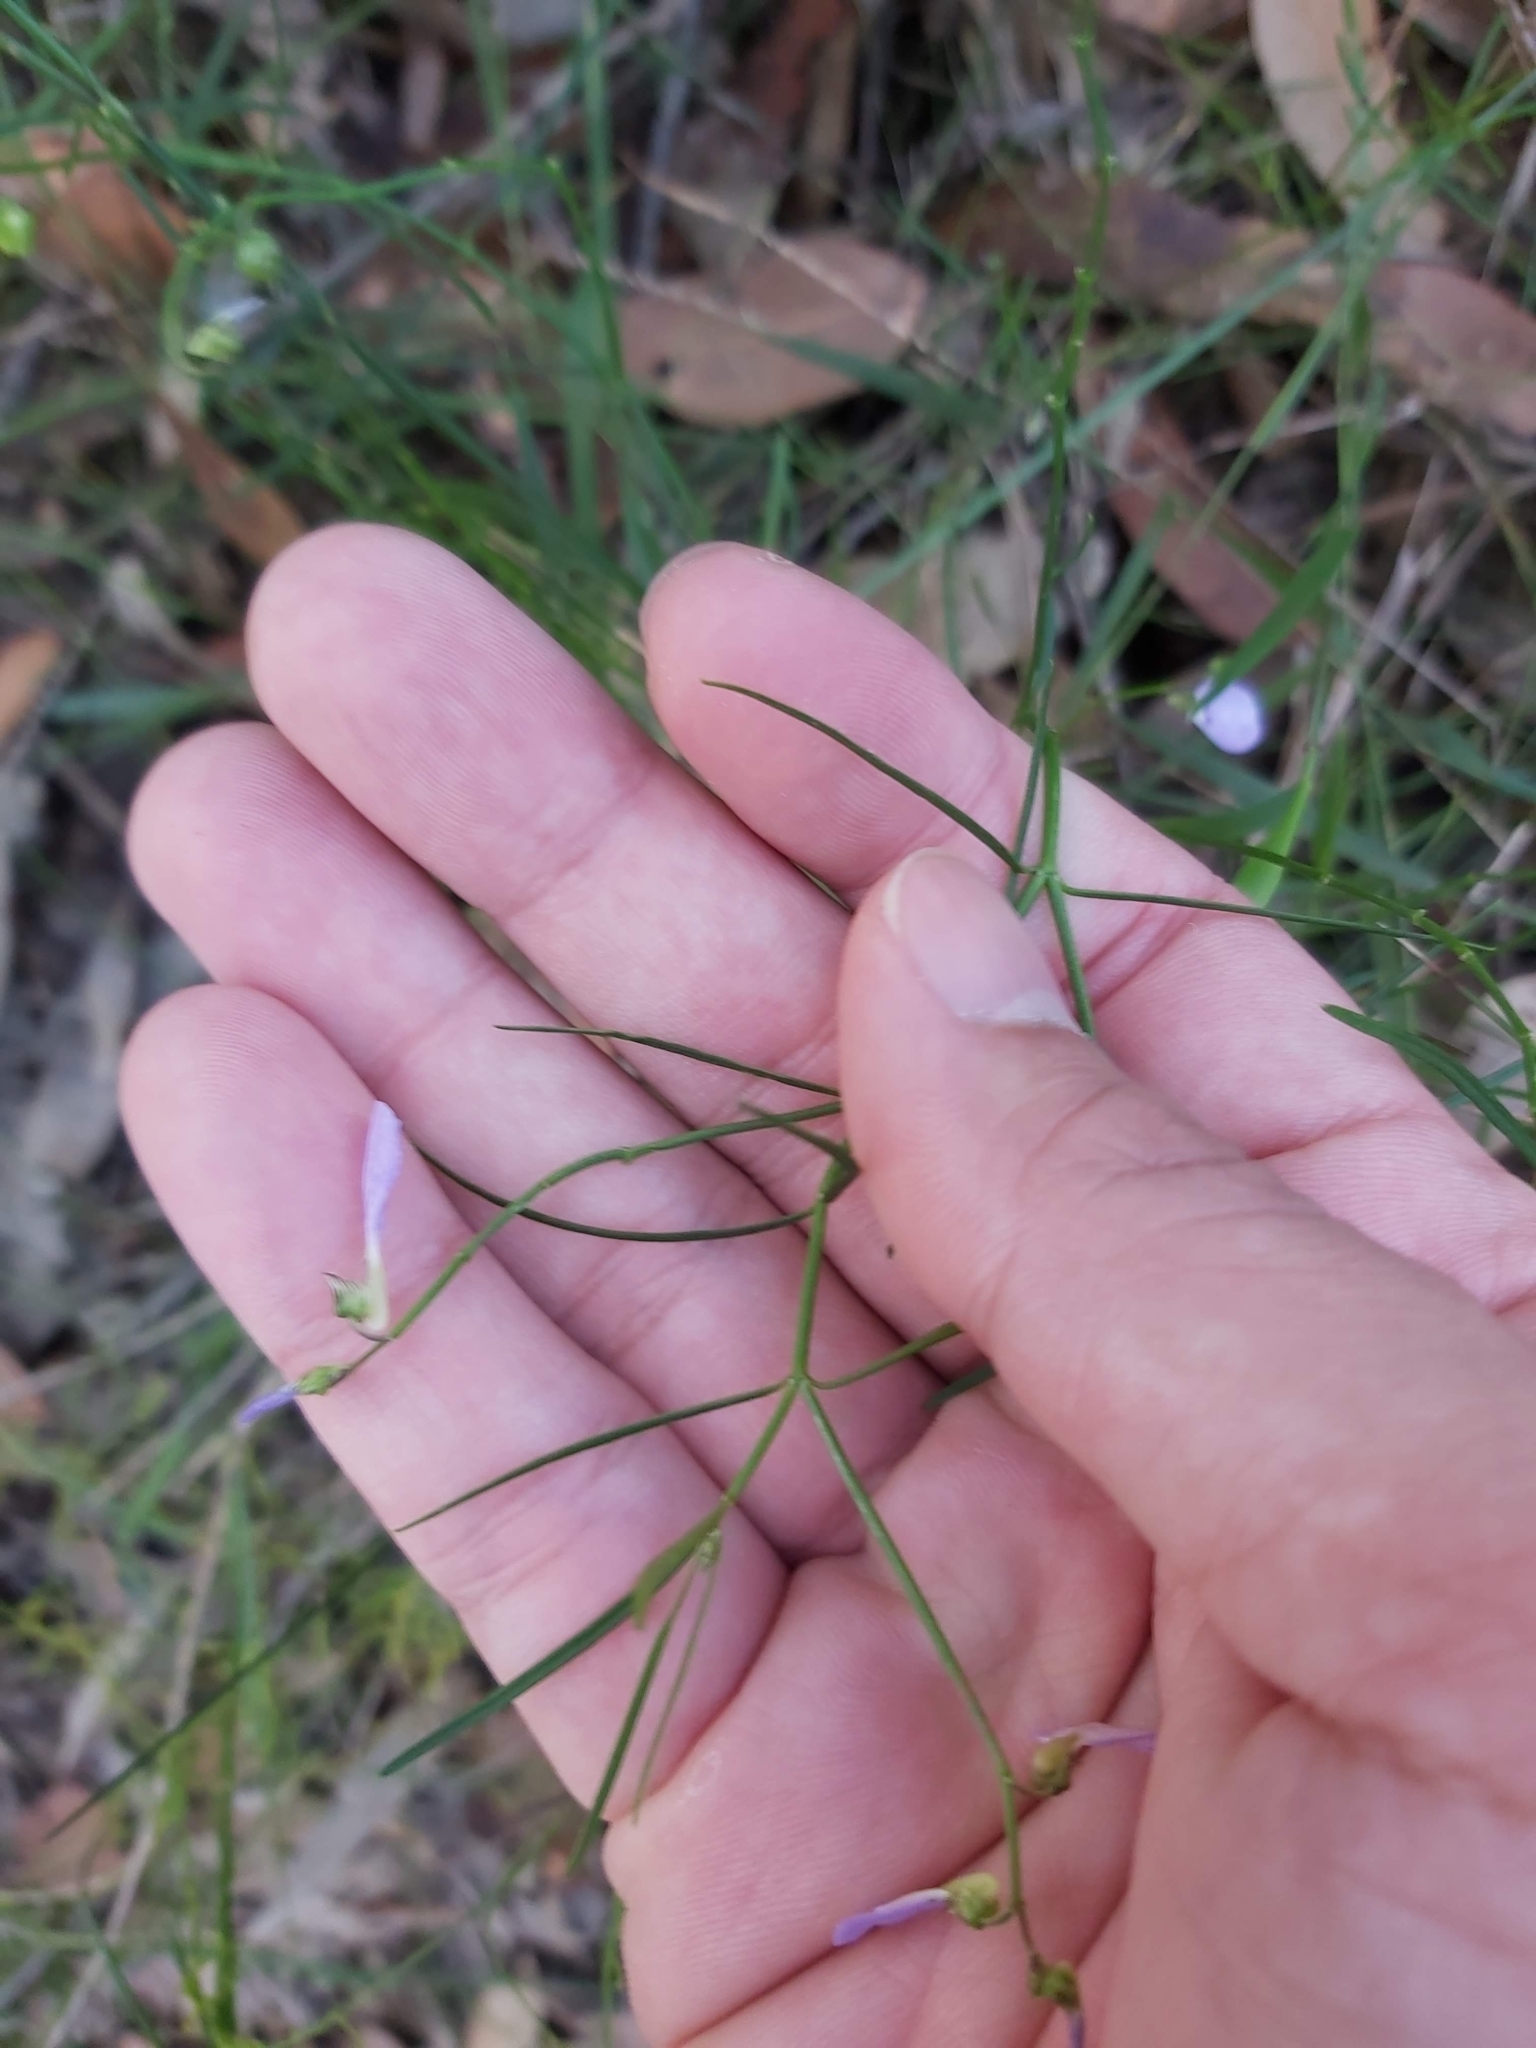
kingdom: Plantae
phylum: Tracheophyta
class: Magnoliopsida
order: Malpighiales
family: Violaceae
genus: Pigea
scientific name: Pigea monopetala
